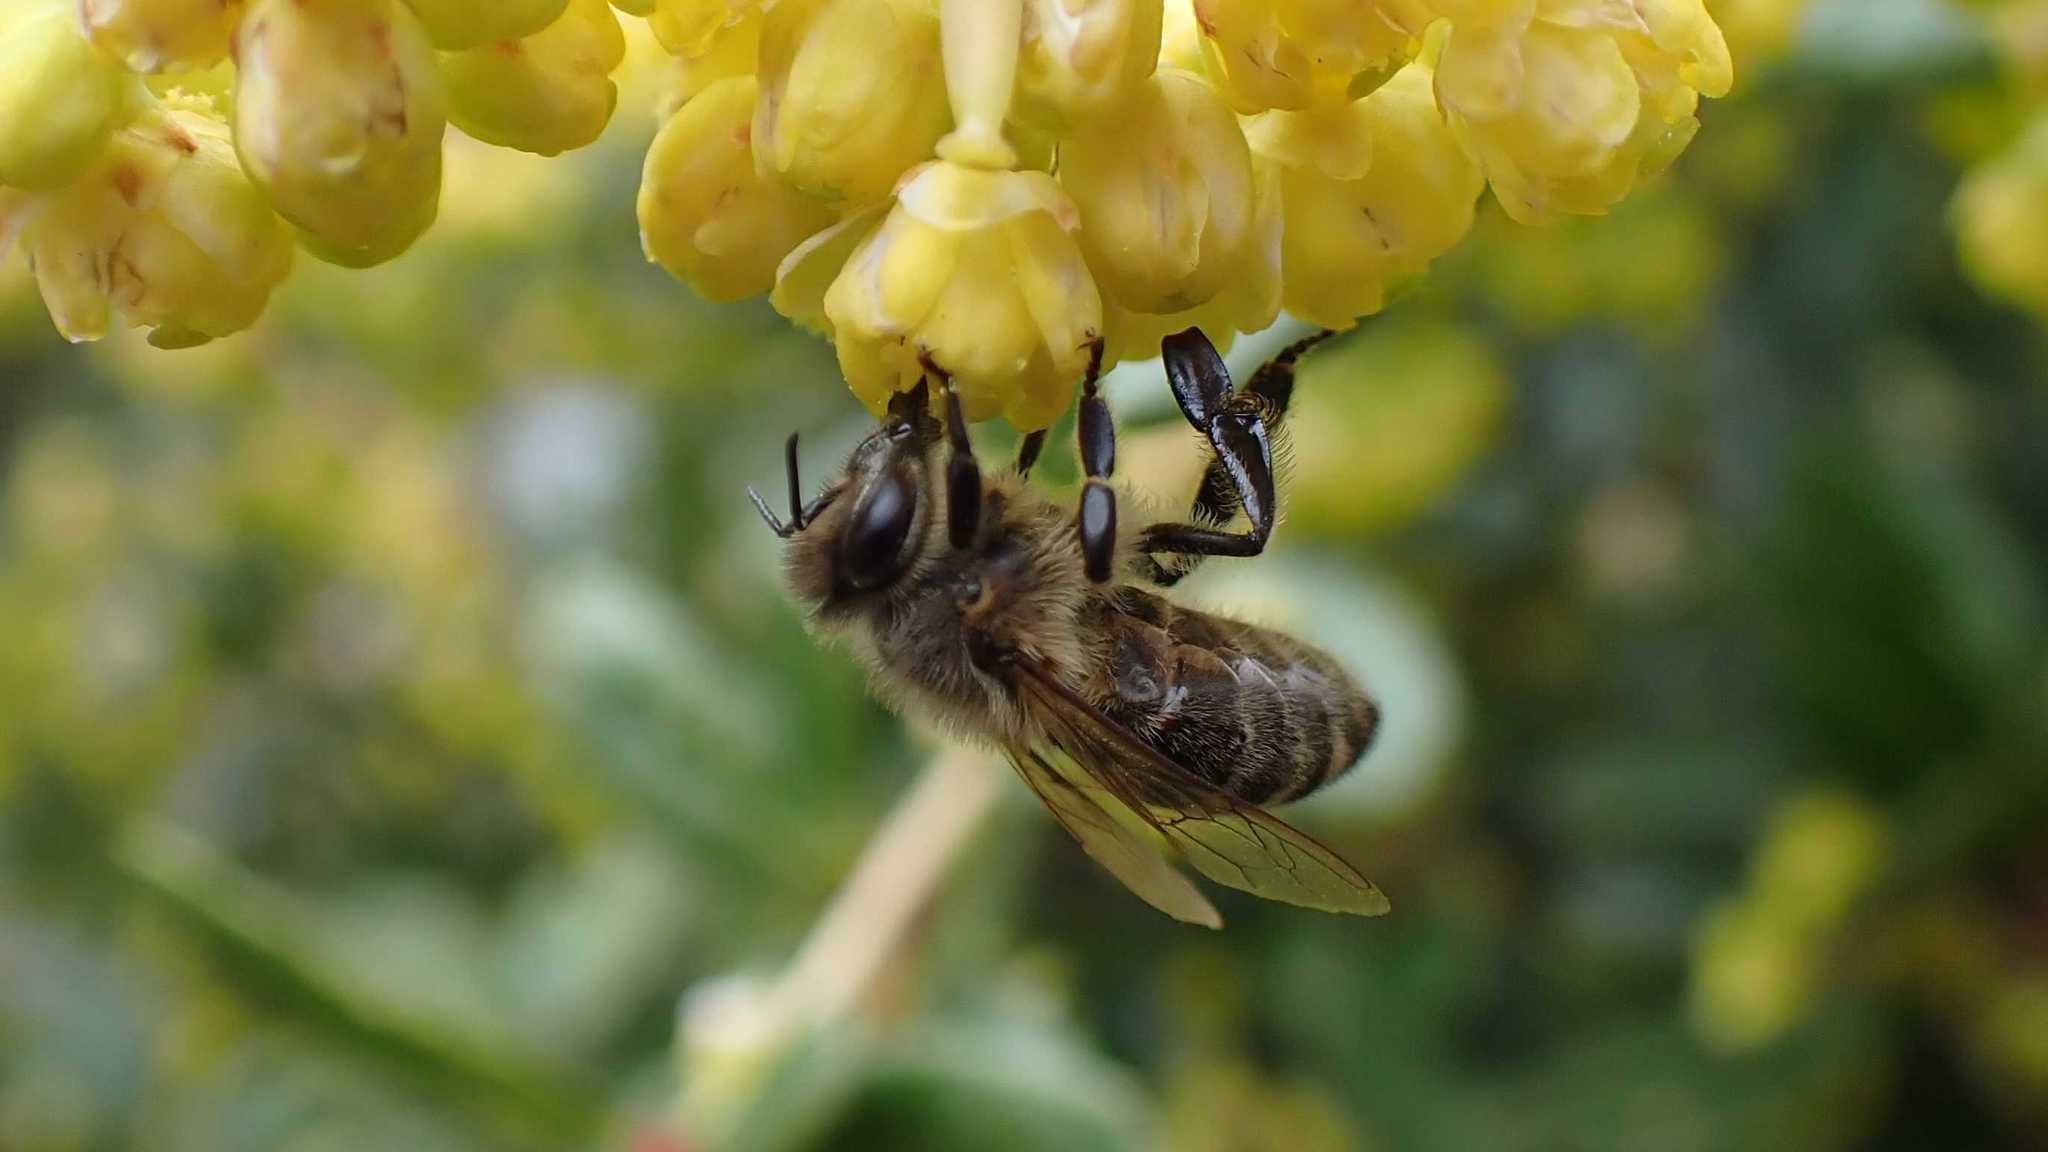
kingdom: Animalia
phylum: Arthropoda
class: Insecta
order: Hymenoptera
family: Apidae
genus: Apis
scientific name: Apis mellifera
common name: Honey bee
